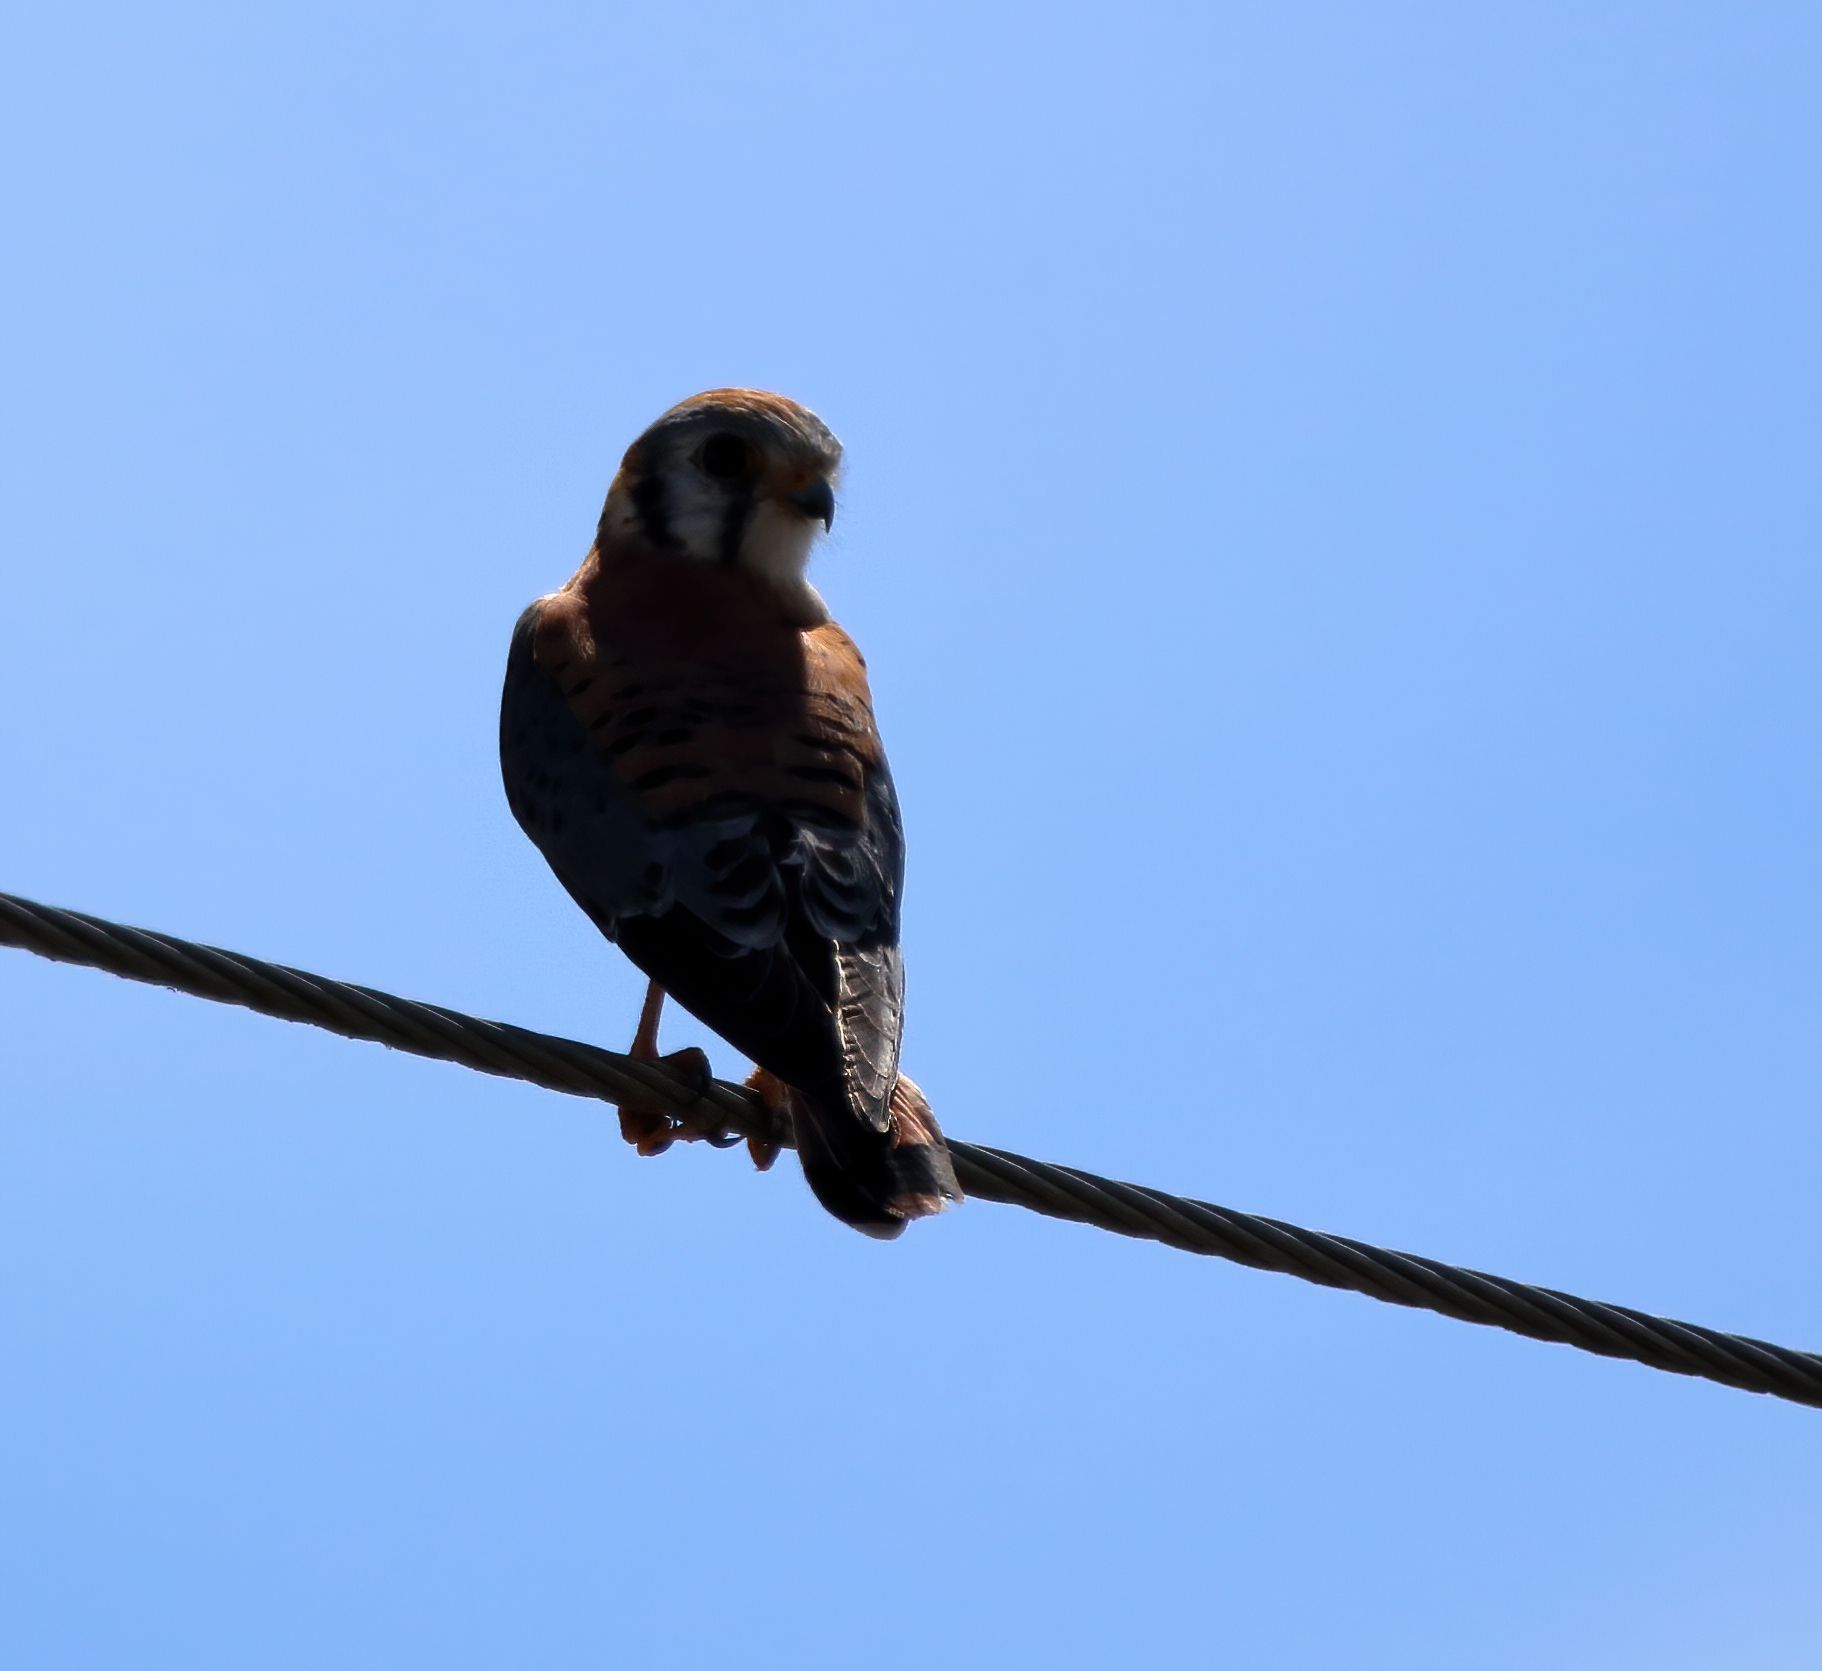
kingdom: Animalia
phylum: Chordata
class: Aves
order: Falconiformes
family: Falconidae
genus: Falco
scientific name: Falco sparverius
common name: American kestrel
